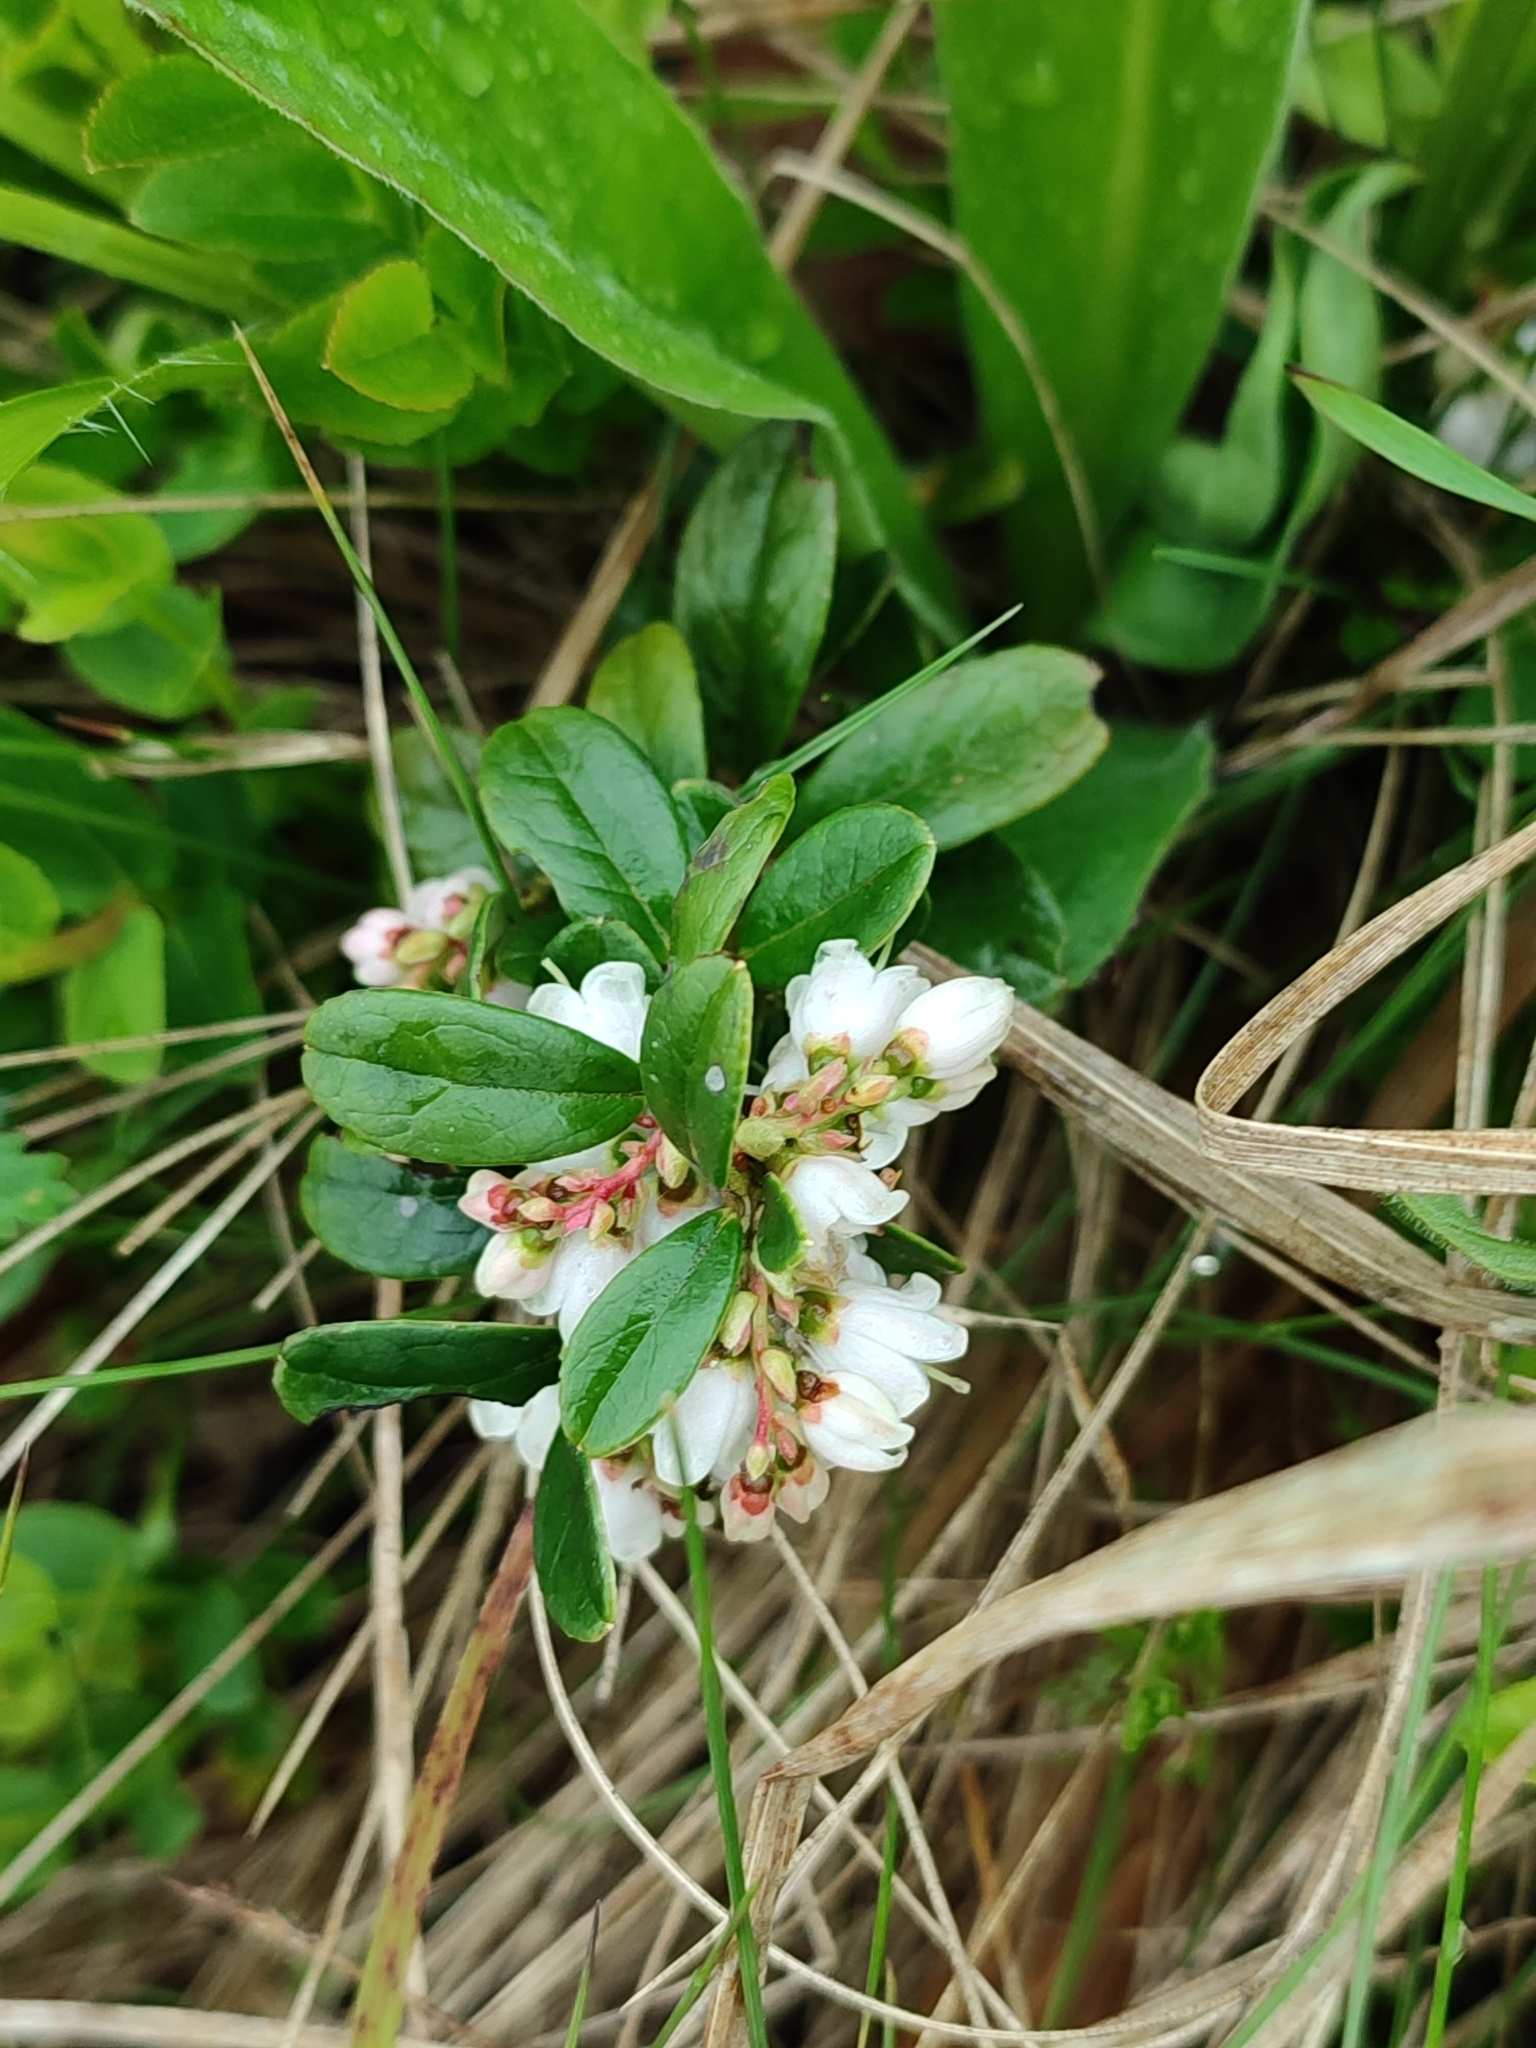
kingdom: Plantae
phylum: Tracheophyta
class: Magnoliopsida
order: Ericales
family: Ericaceae
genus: Vaccinium
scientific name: Vaccinium vitis-idaea
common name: Cowberry
